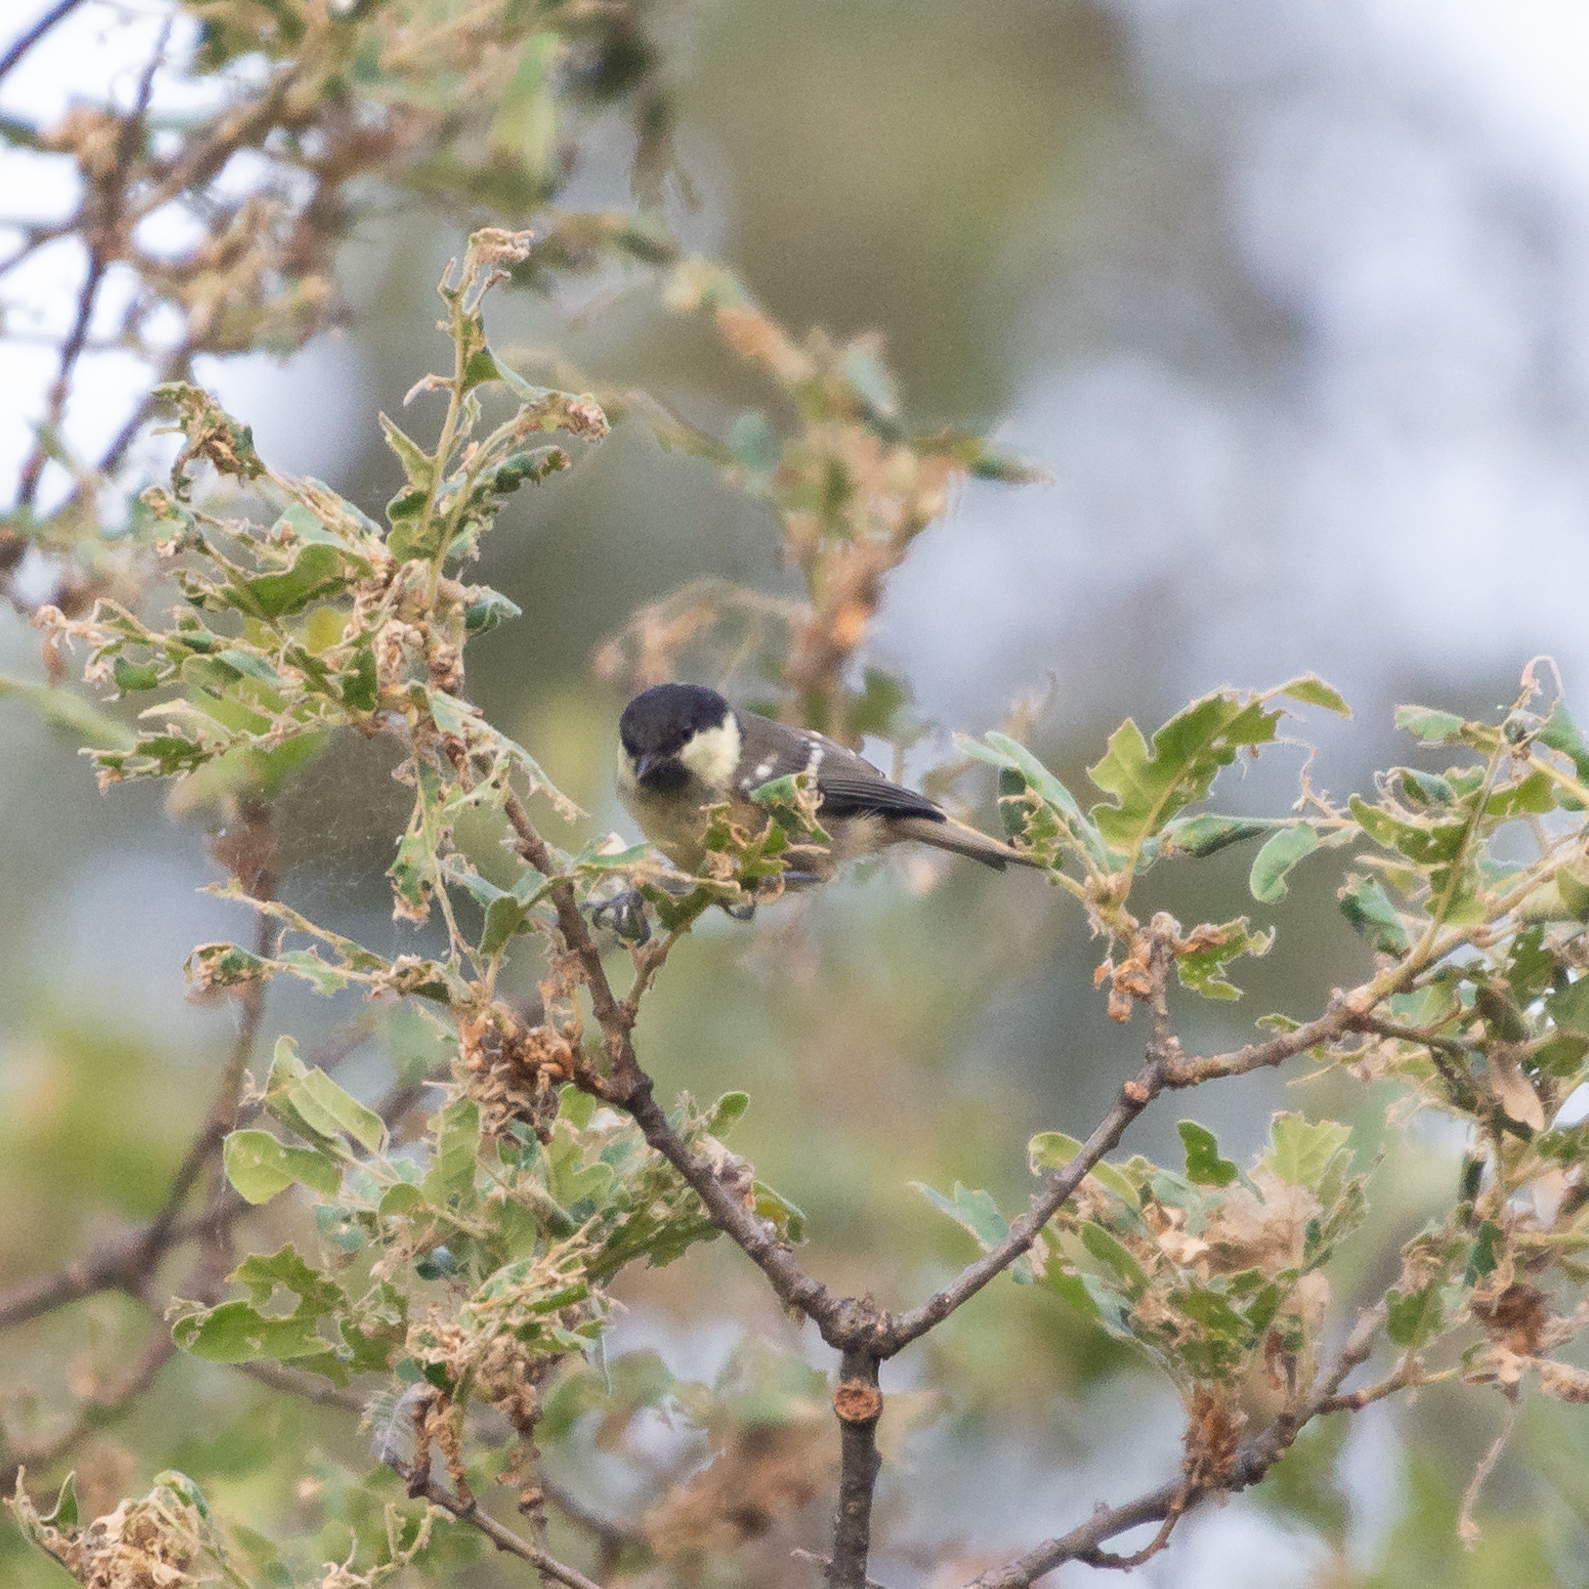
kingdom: Animalia
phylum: Chordata
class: Aves
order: Passeriformes
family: Paridae
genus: Periparus
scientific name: Periparus ater
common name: Coal tit
